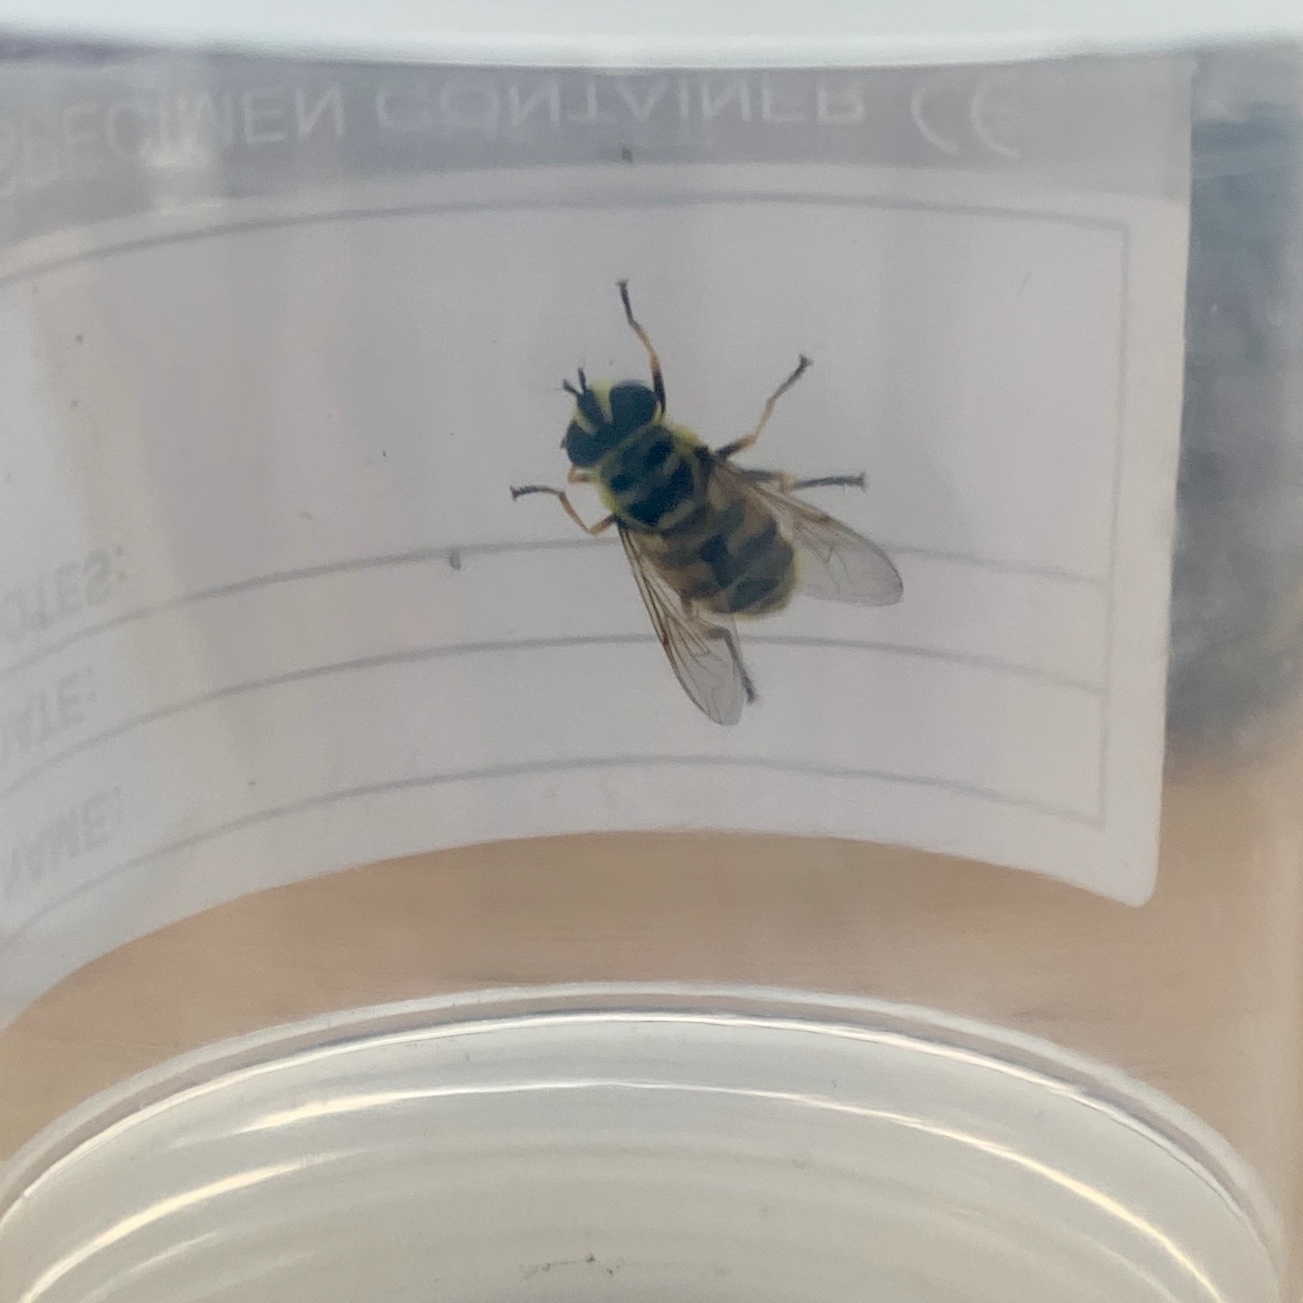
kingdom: Animalia
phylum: Arthropoda
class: Insecta
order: Diptera
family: Syrphidae
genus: Myathropa
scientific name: Myathropa florea
